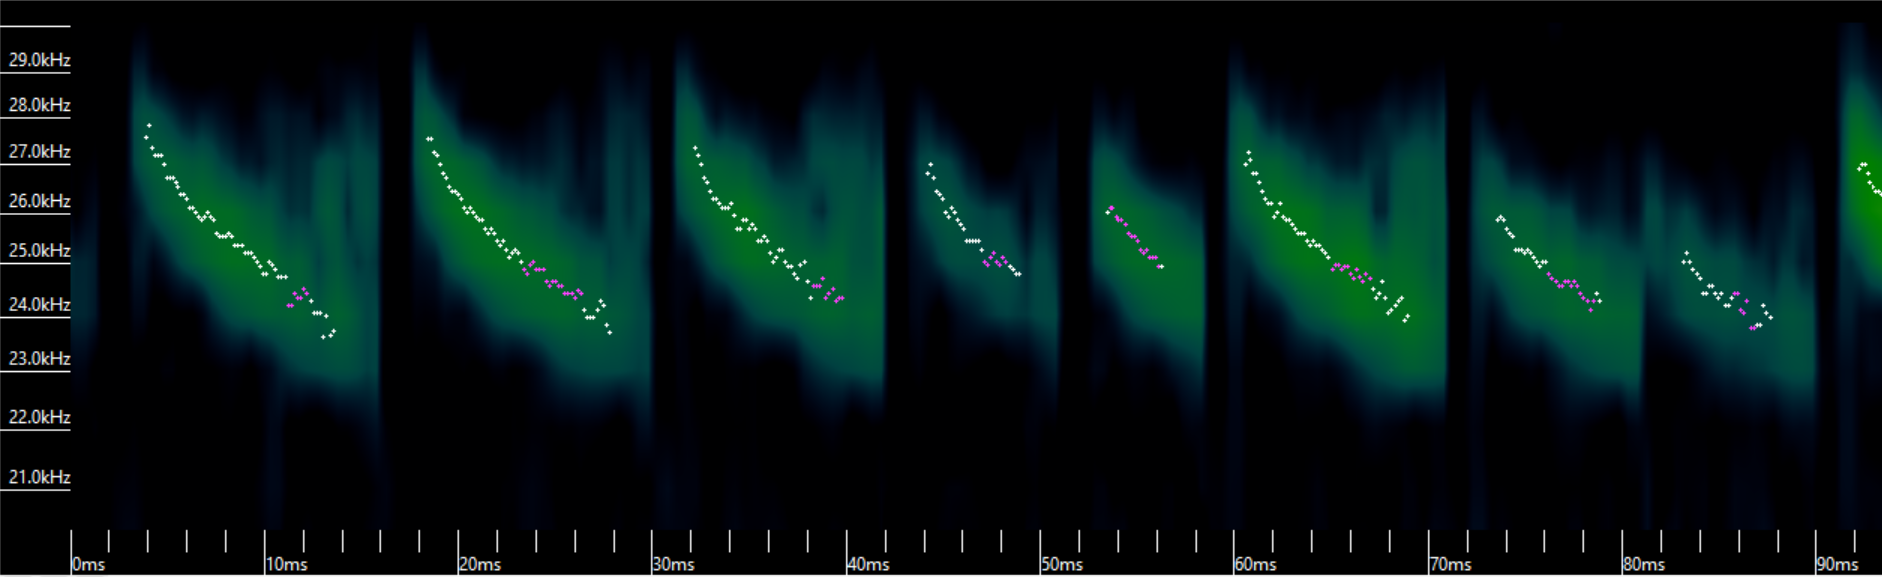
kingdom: Animalia
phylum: Chordata
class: Mammalia
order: Chiroptera
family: Vespertilionidae
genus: Lasionycteris
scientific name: Lasionycteris noctivagans
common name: Silver-haired bat
